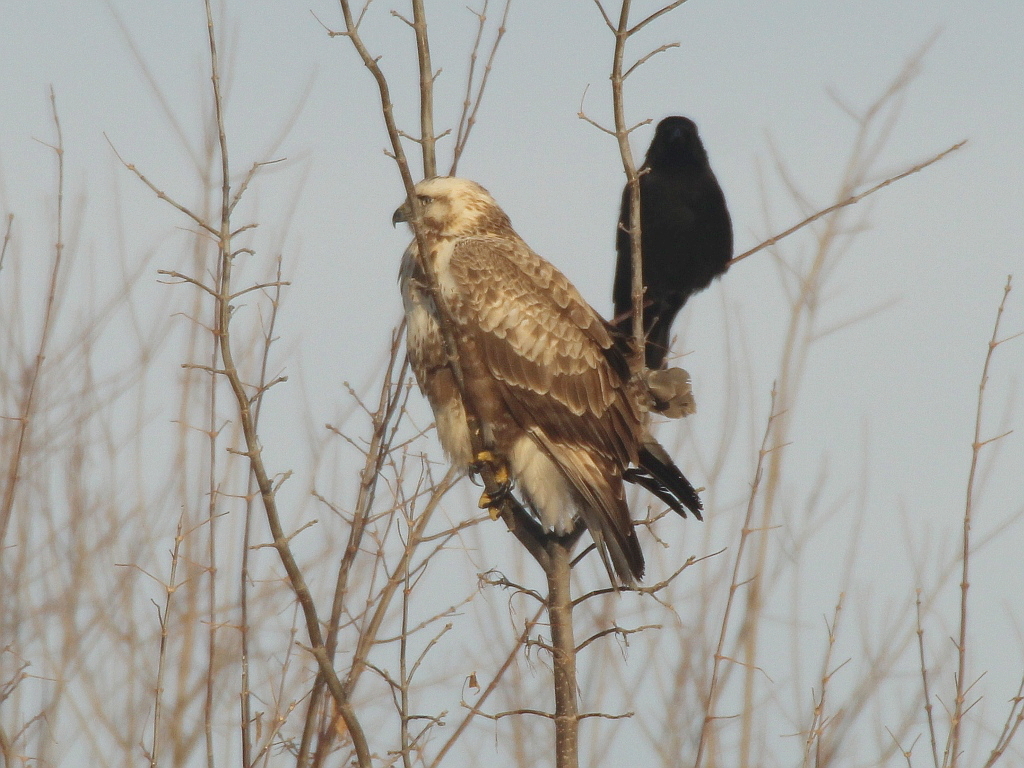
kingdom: Animalia
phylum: Chordata
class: Aves
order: Accipitriformes
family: Accipitridae
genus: Buteo
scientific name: Buteo hemilasius
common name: Upland buzzard
